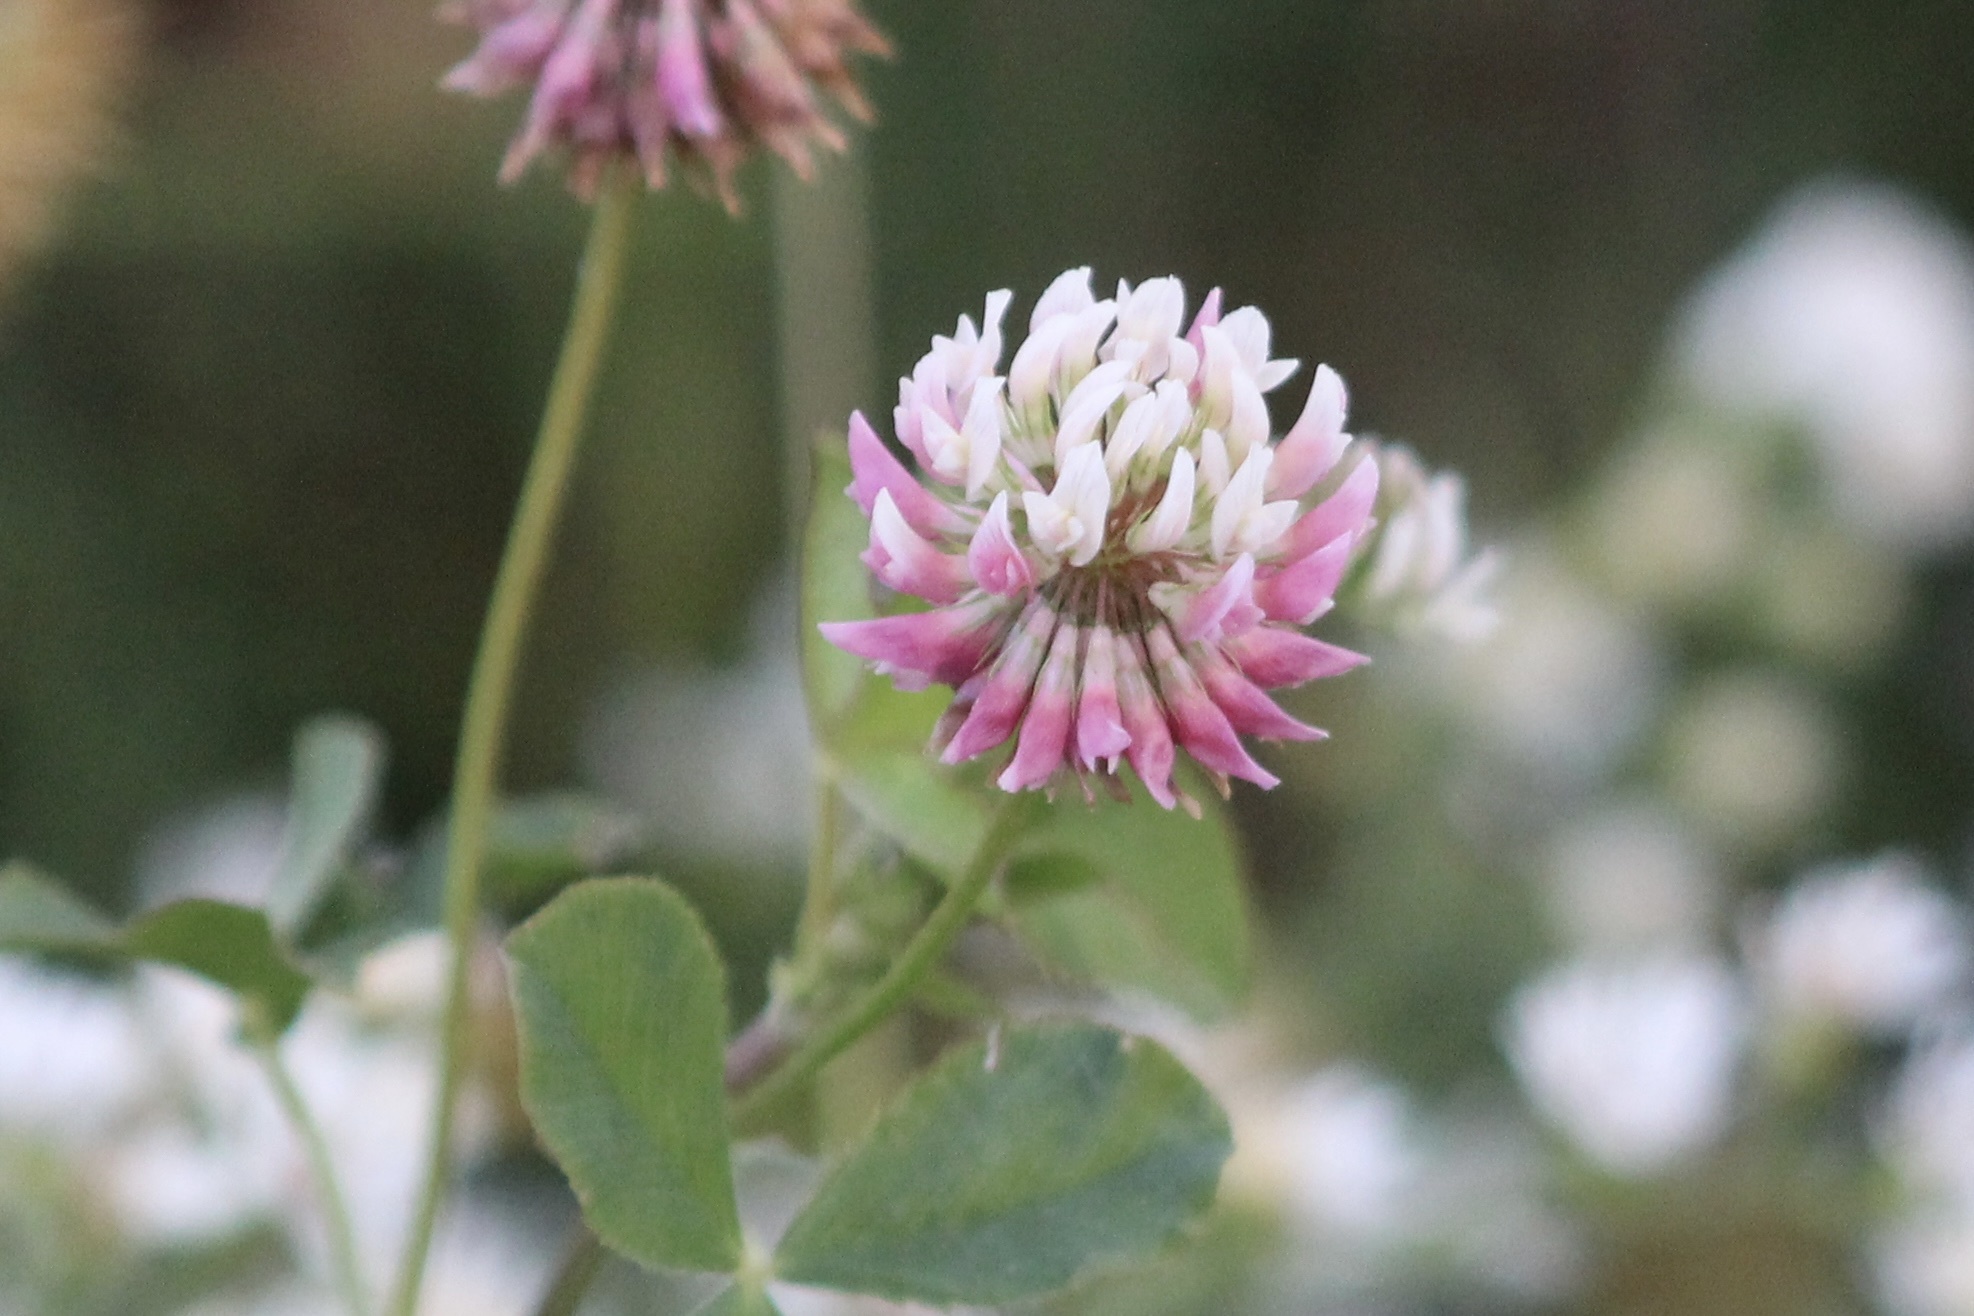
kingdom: Plantae
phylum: Tracheophyta
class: Magnoliopsida
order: Fabales
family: Fabaceae
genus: Trifolium
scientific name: Trifolium hybridum
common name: Alsike clover
